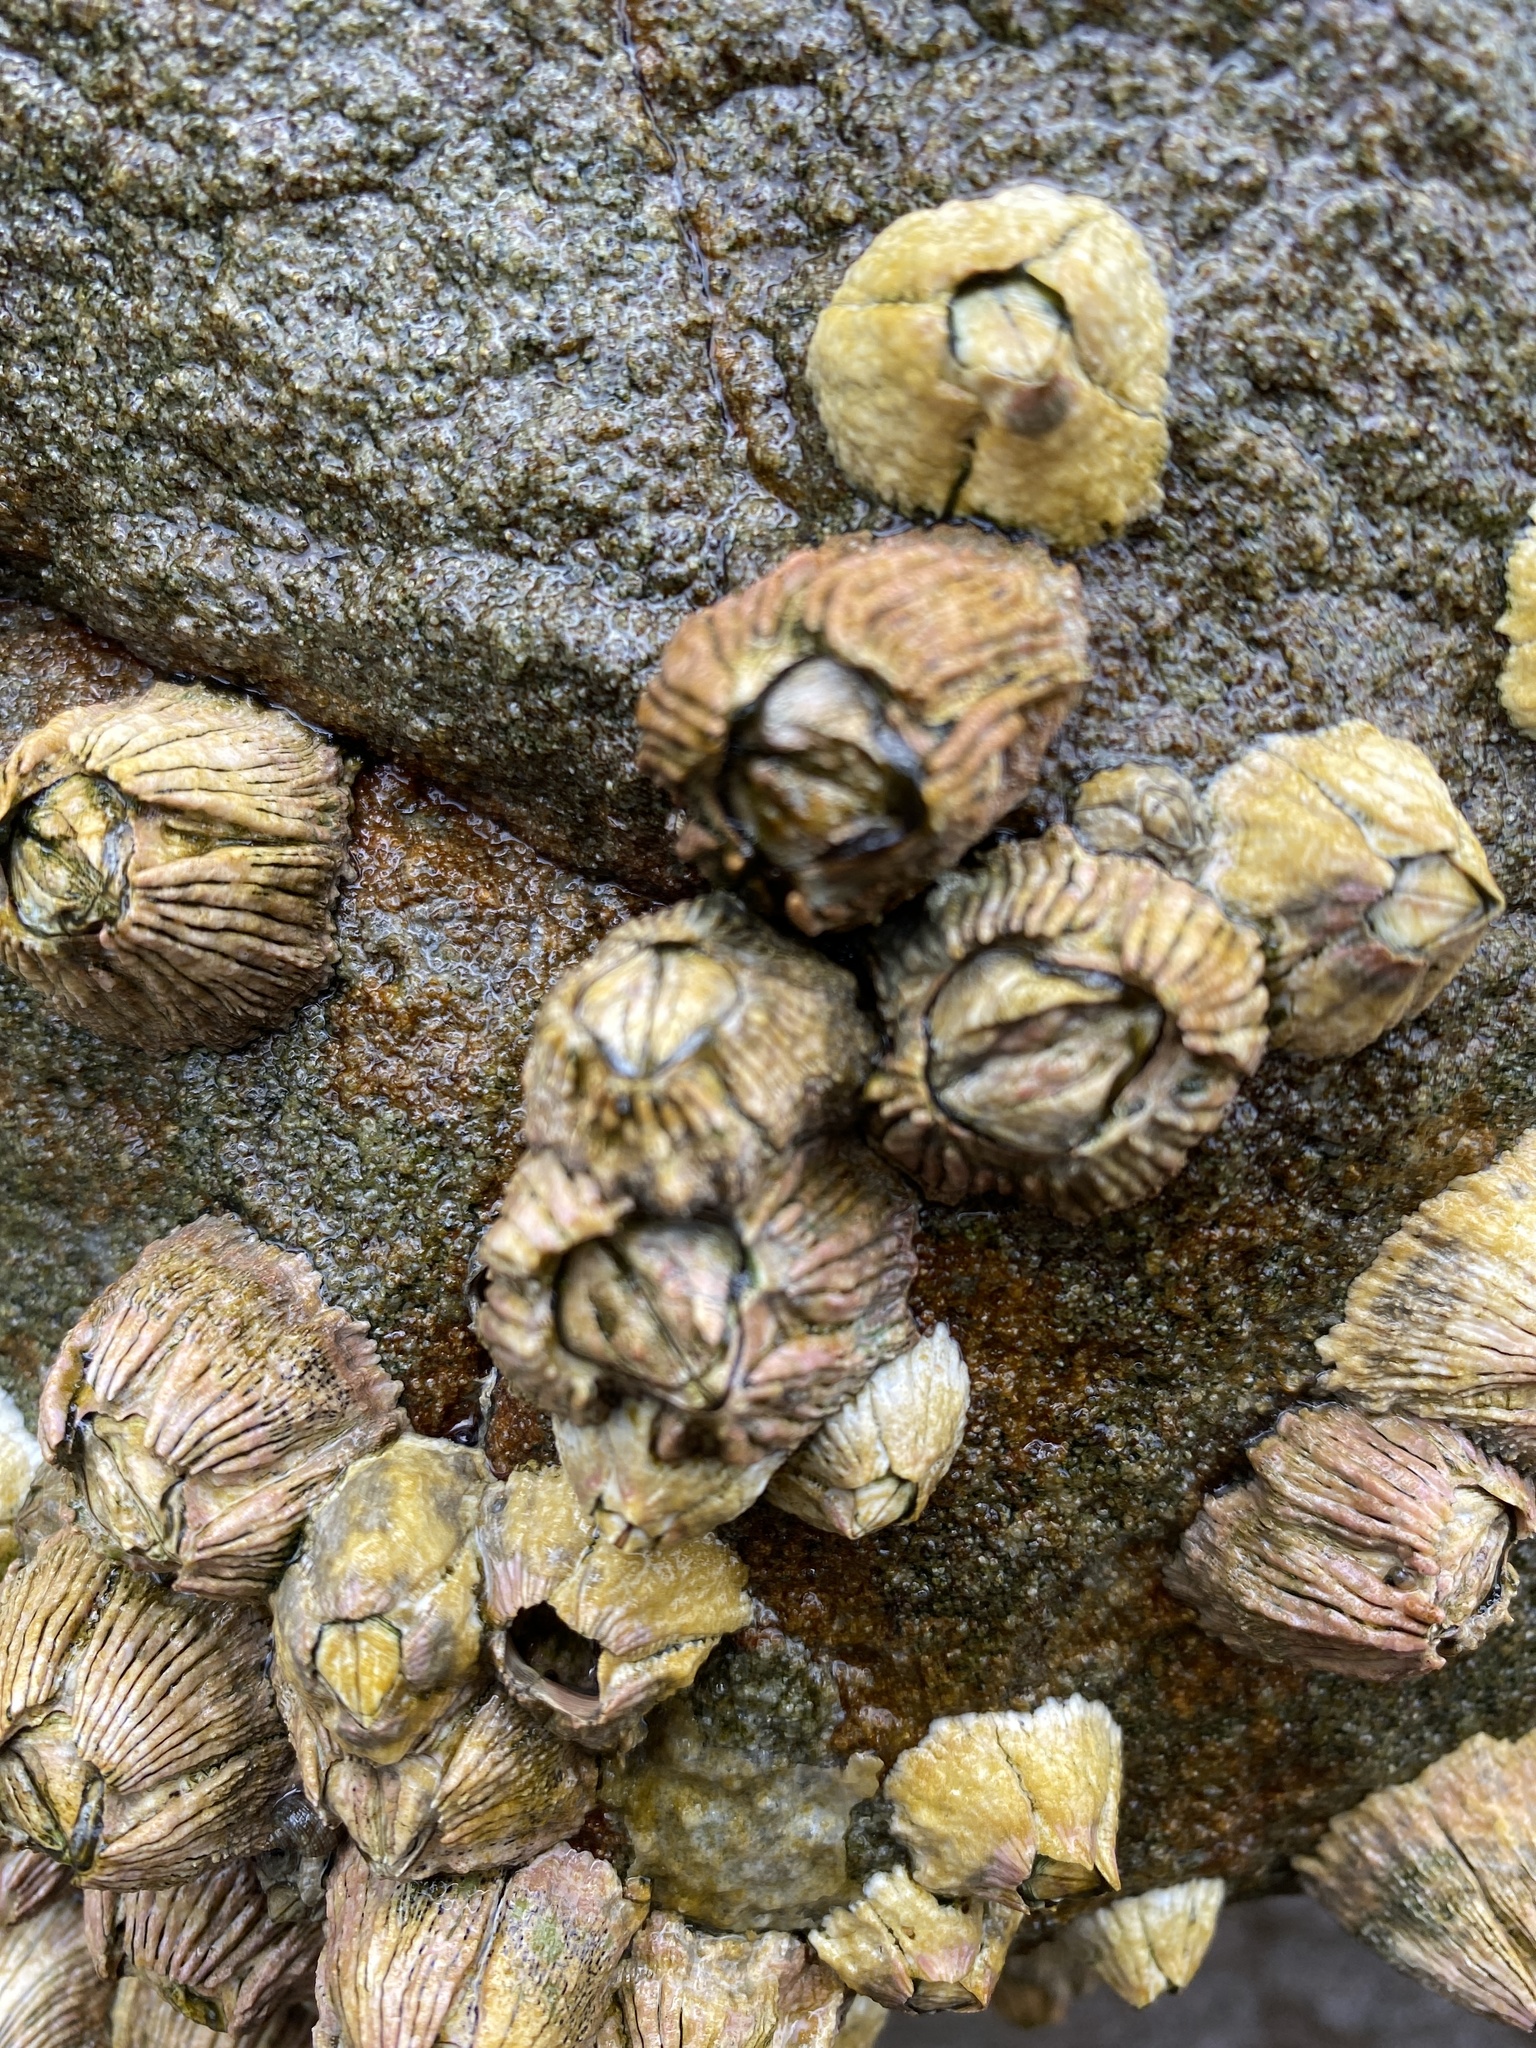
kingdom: Animalia
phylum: Arthropoda
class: Maxillopoda
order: Sessilia
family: Tetraclitidae
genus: Tesseropora
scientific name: Tesseropora rosea
